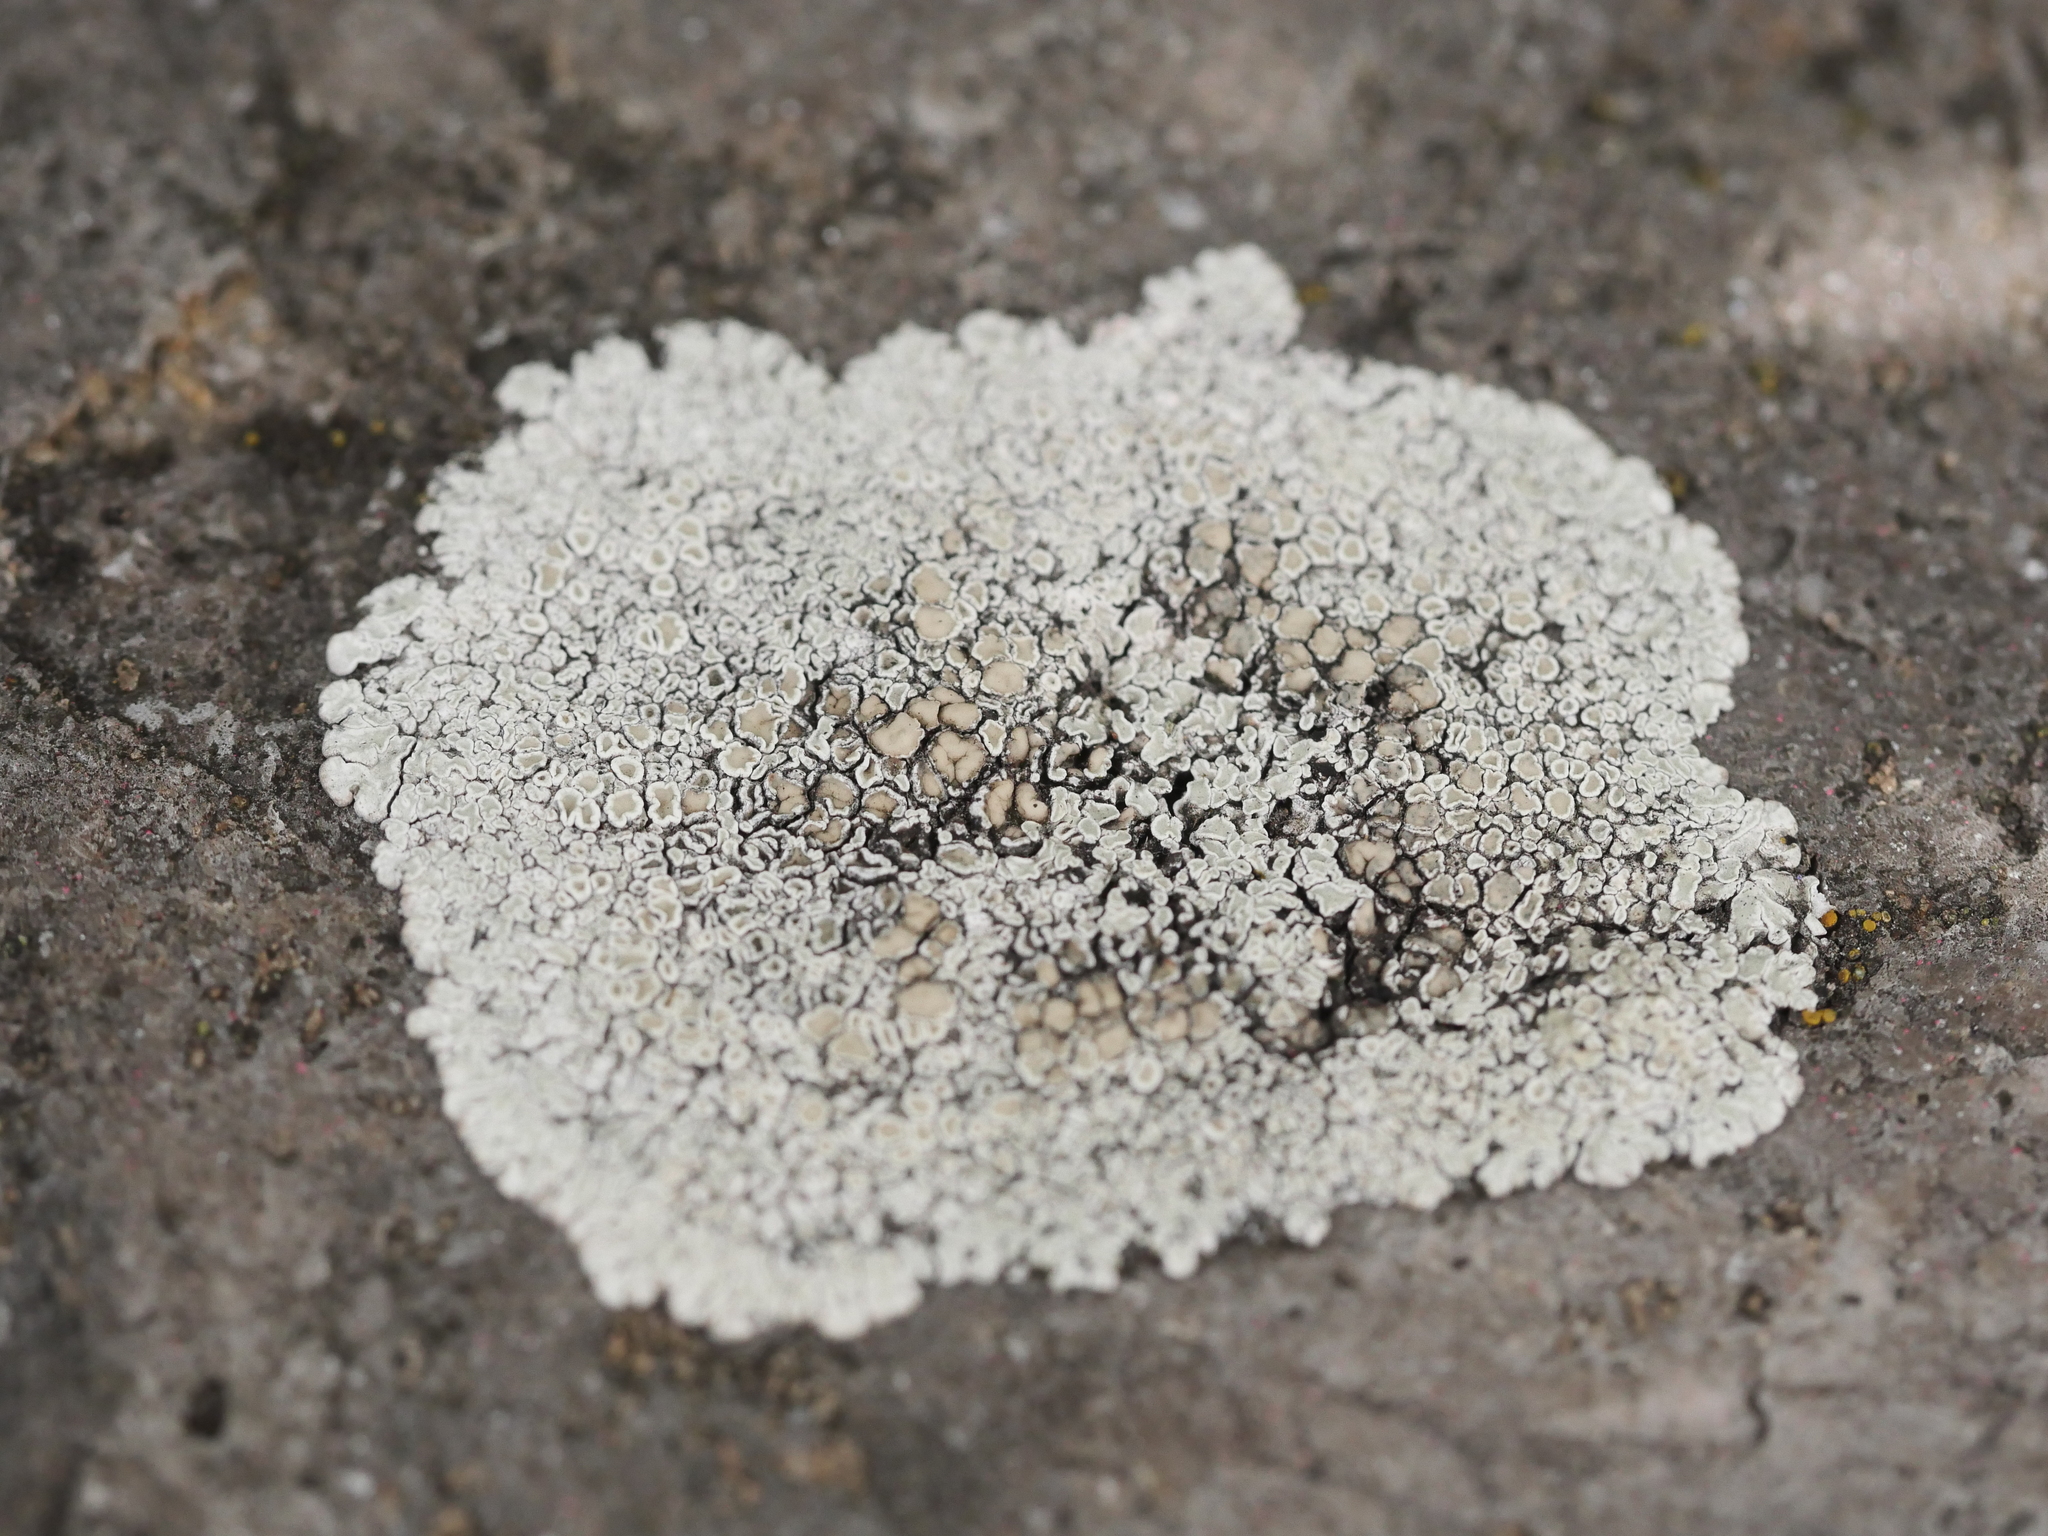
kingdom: Fungi
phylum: Ascomycota
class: Lecanoromycetes
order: Lecanorales
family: Lecanoraceae
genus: Protoparmeliopsis
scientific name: Protoparmeliopsis muralis
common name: Stonewall rim lichen
